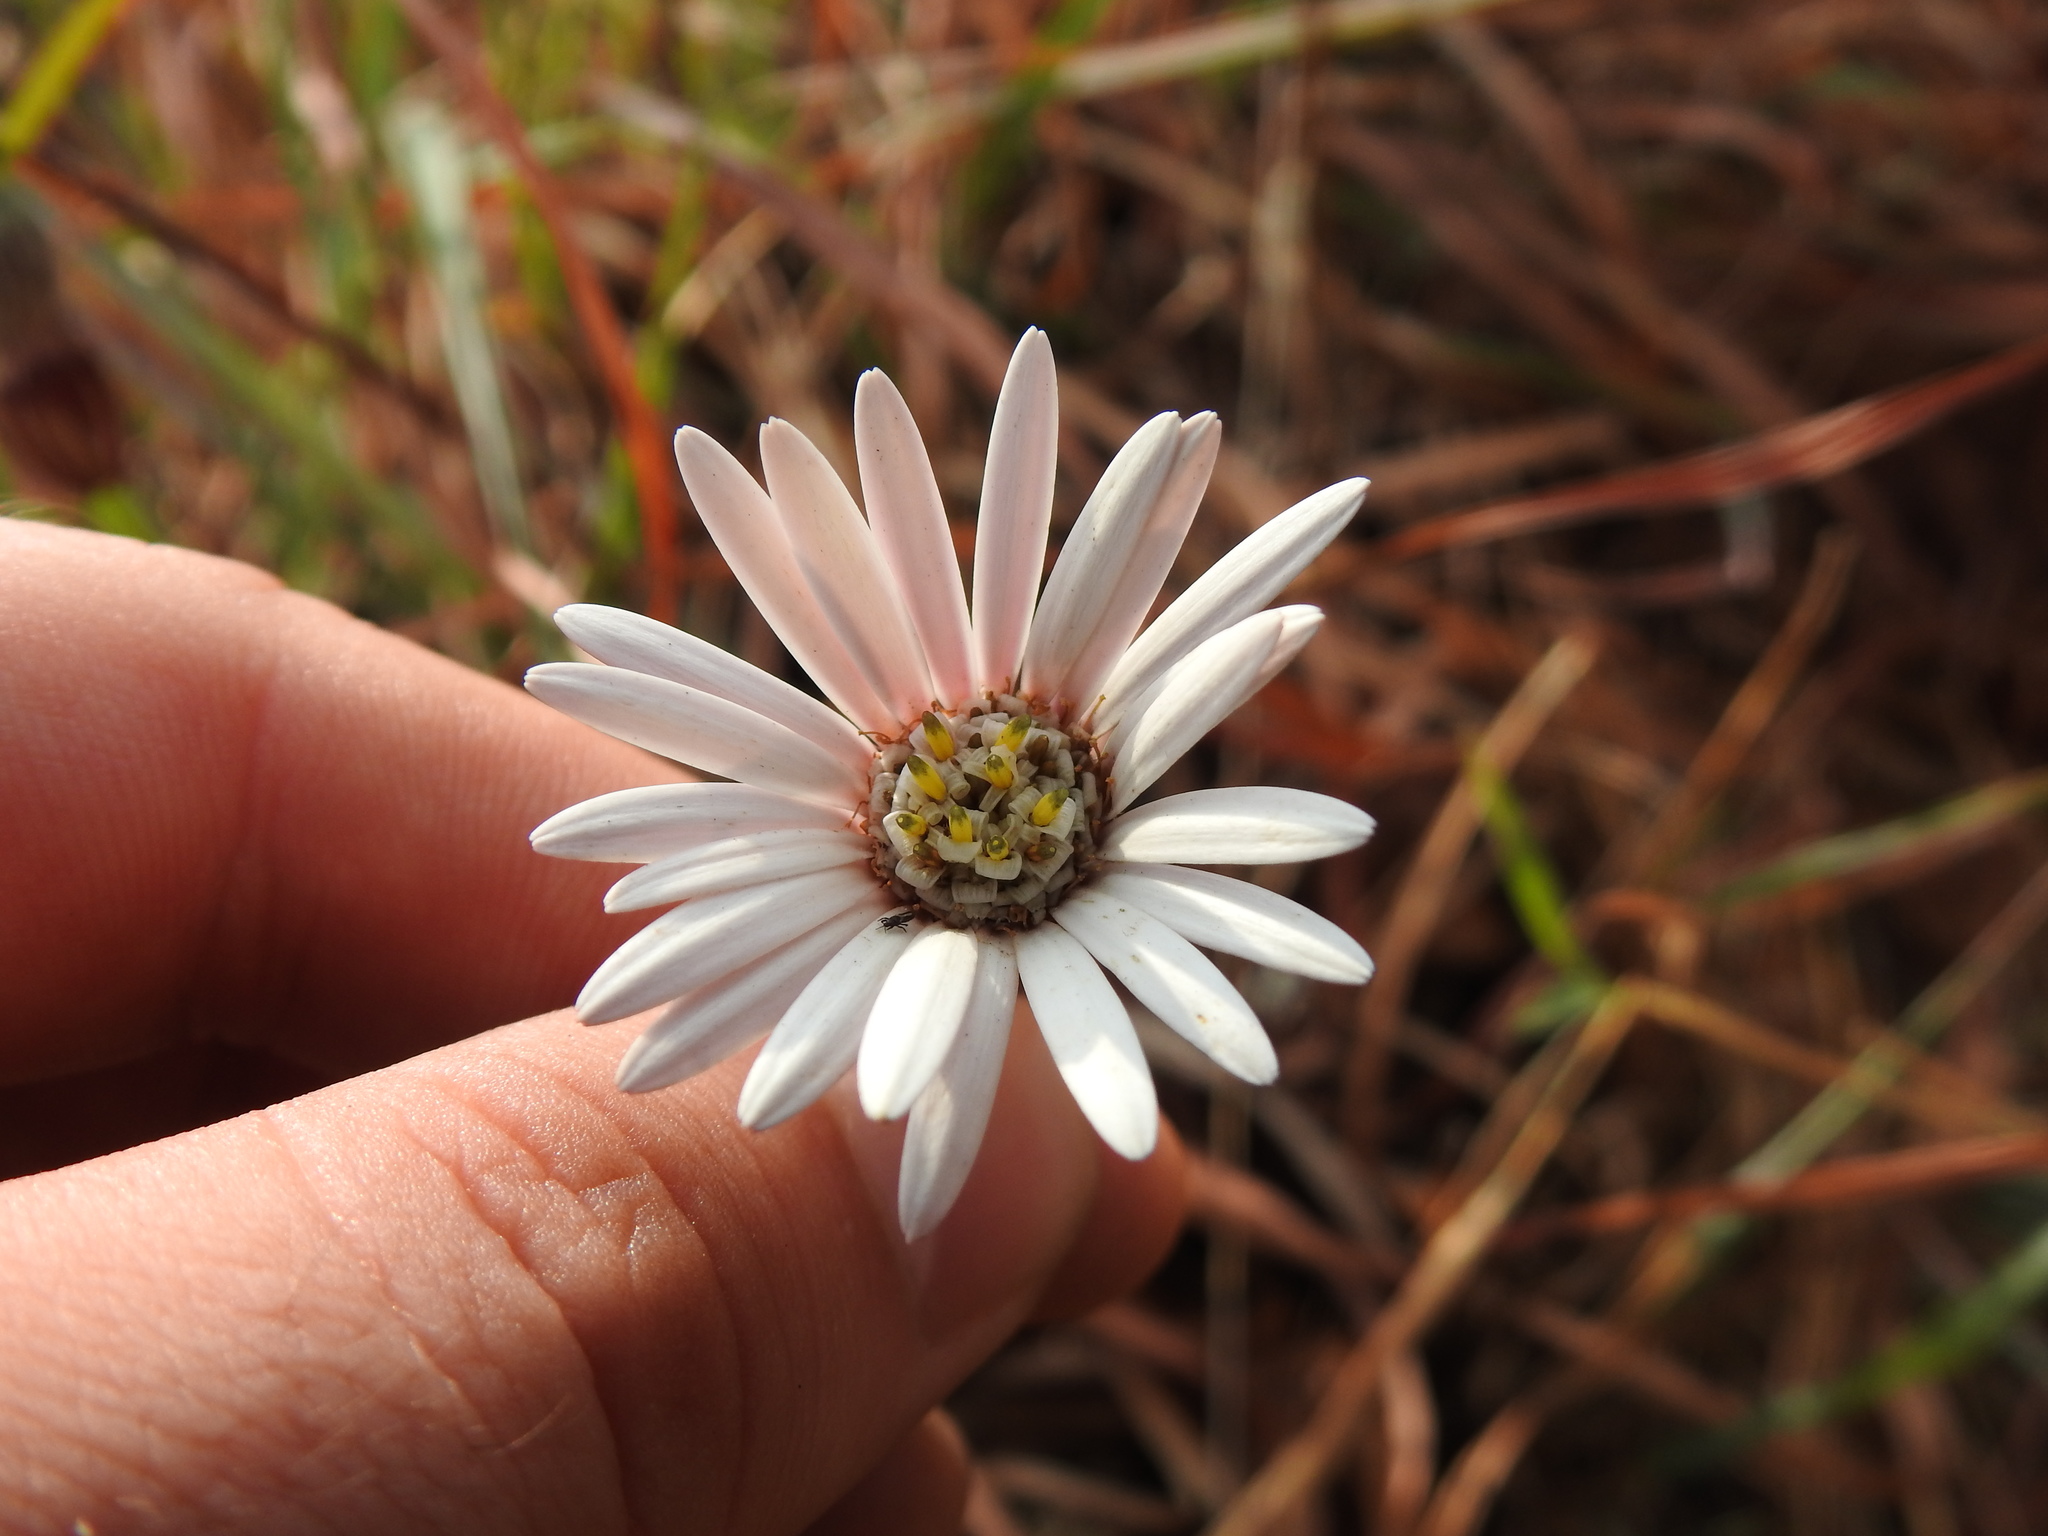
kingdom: Plantae
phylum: Tracheophyta
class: Magnoliopsida
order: Asterales
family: Asteraceae
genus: Gerbera
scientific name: Gerbera viridifolia
